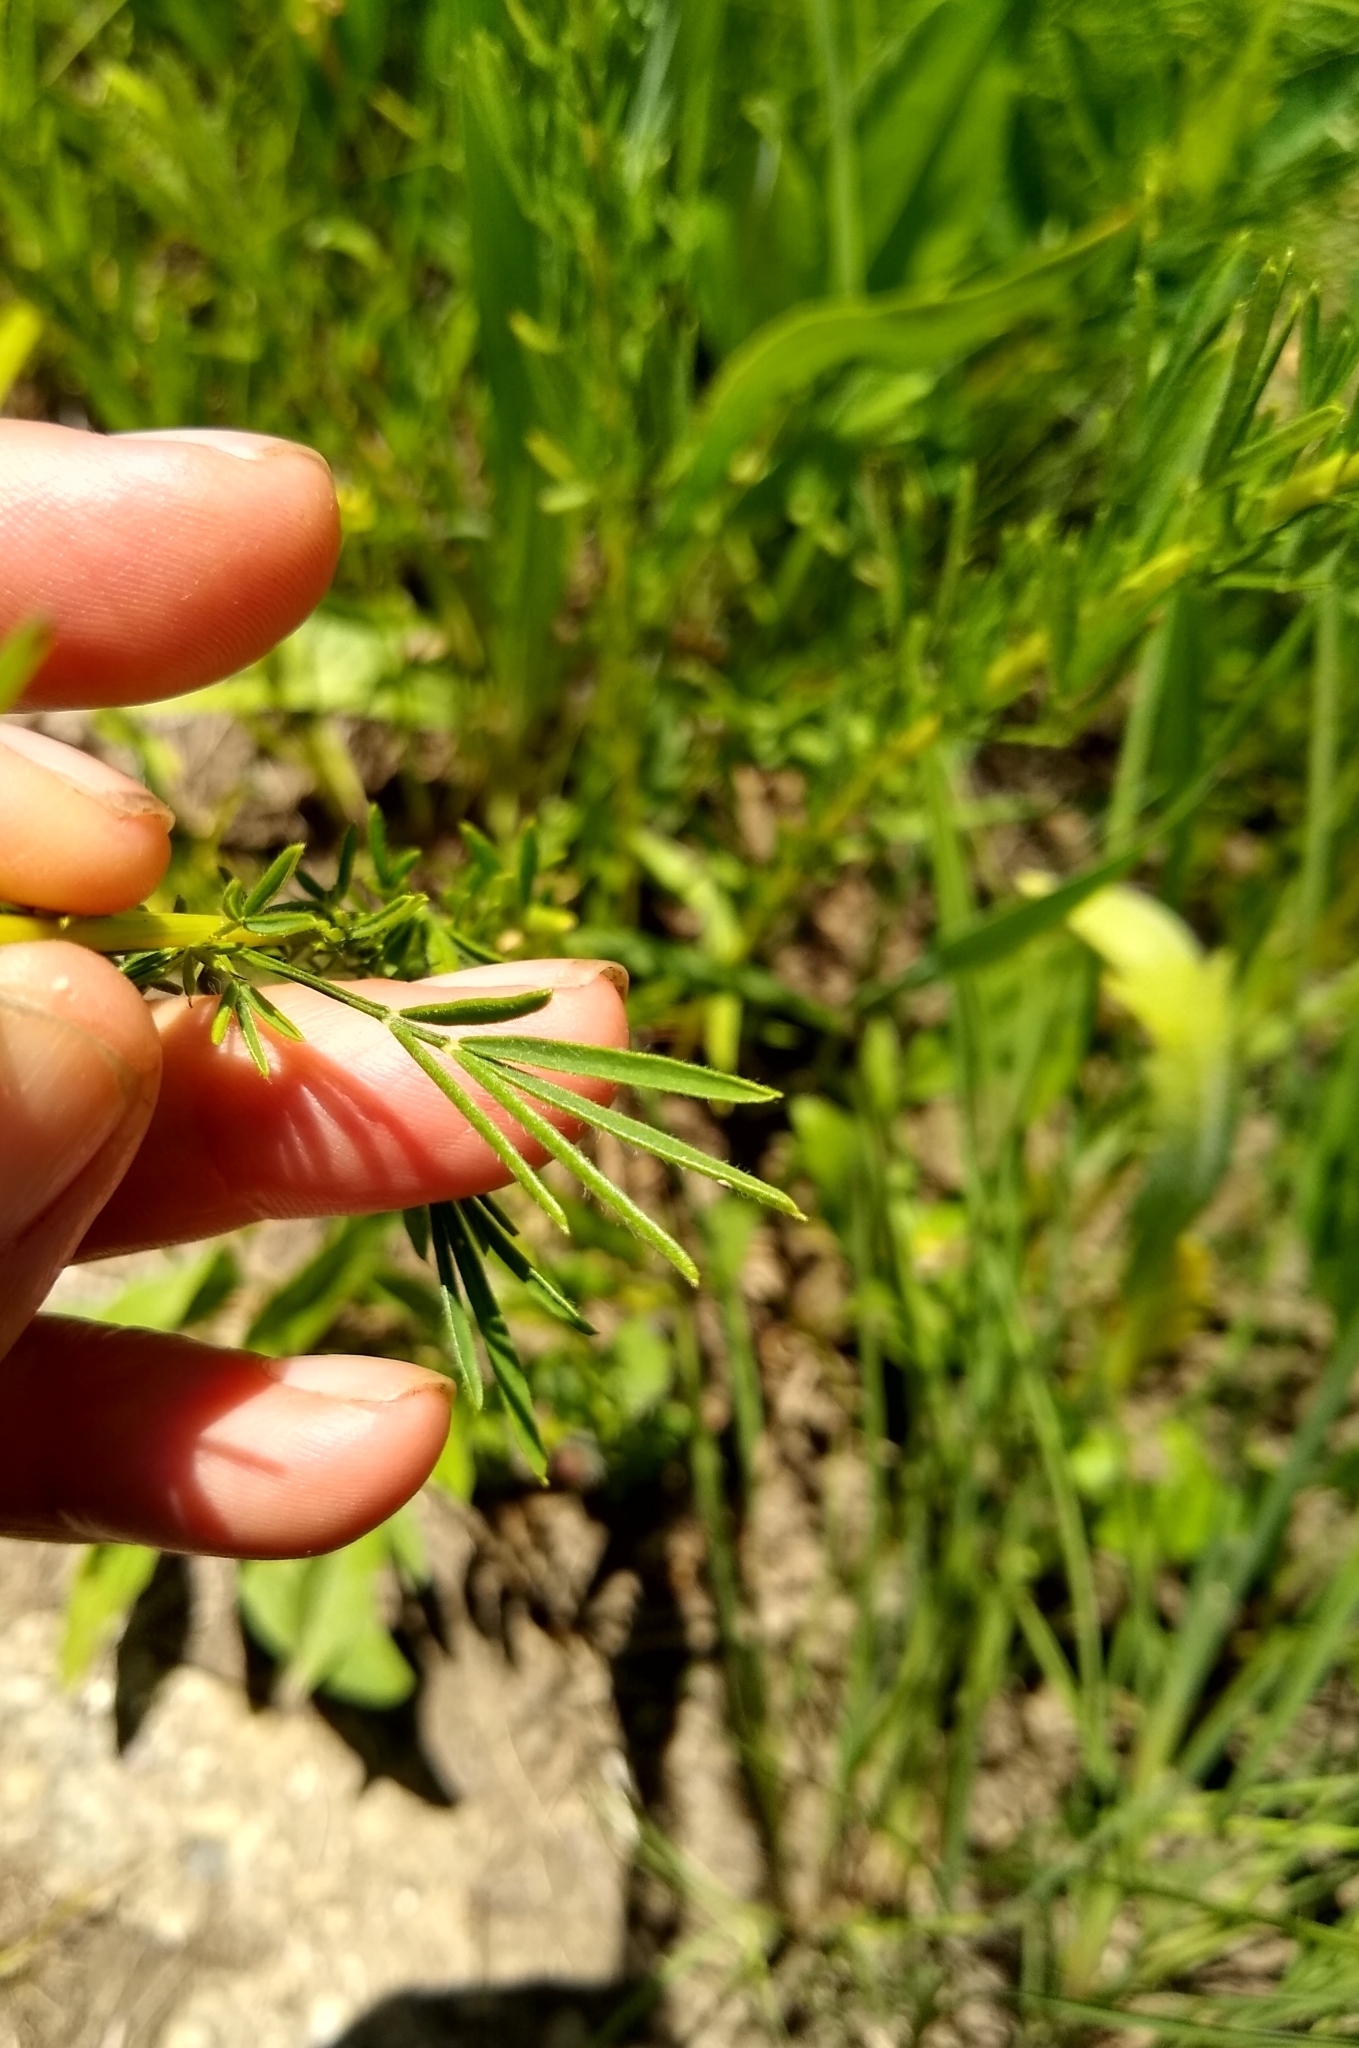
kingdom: Plantae
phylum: Tracheophyta
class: Magnoliopsida
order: Fabales
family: Fabaceae
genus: Dalea
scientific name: Dalea purpurea
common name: Purple prairie-clover
